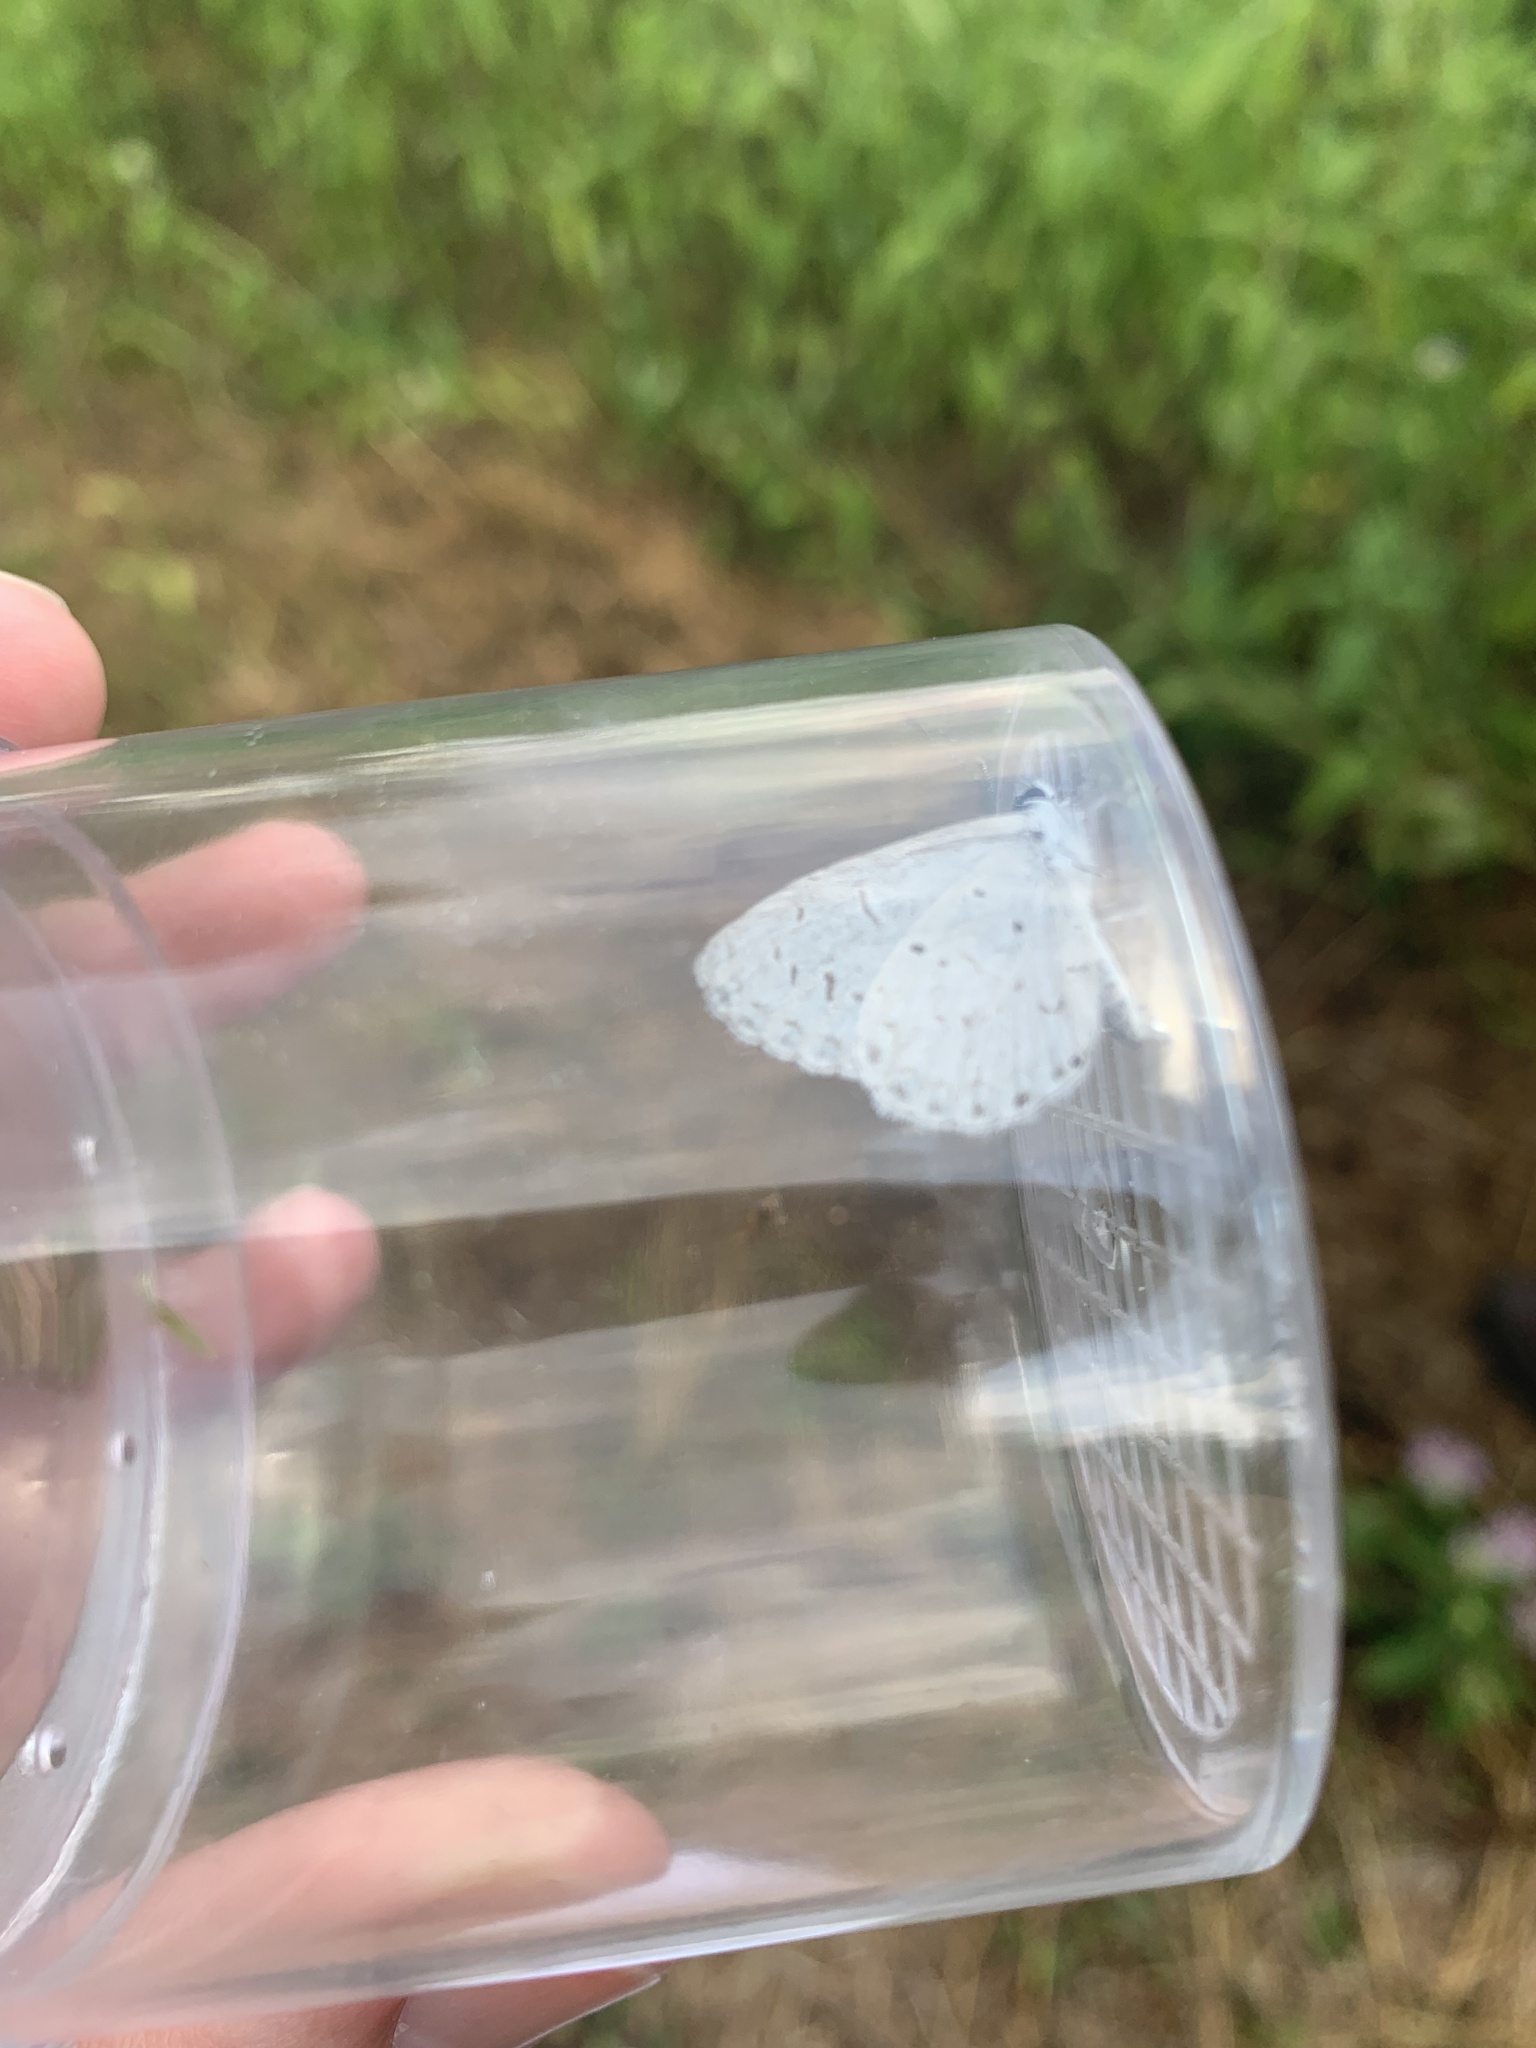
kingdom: Animalia
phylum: Arthropoda
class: Insecta
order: Lepidoptera
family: Lycaenidae
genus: Cyaniris
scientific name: Cyaniris neglecta
